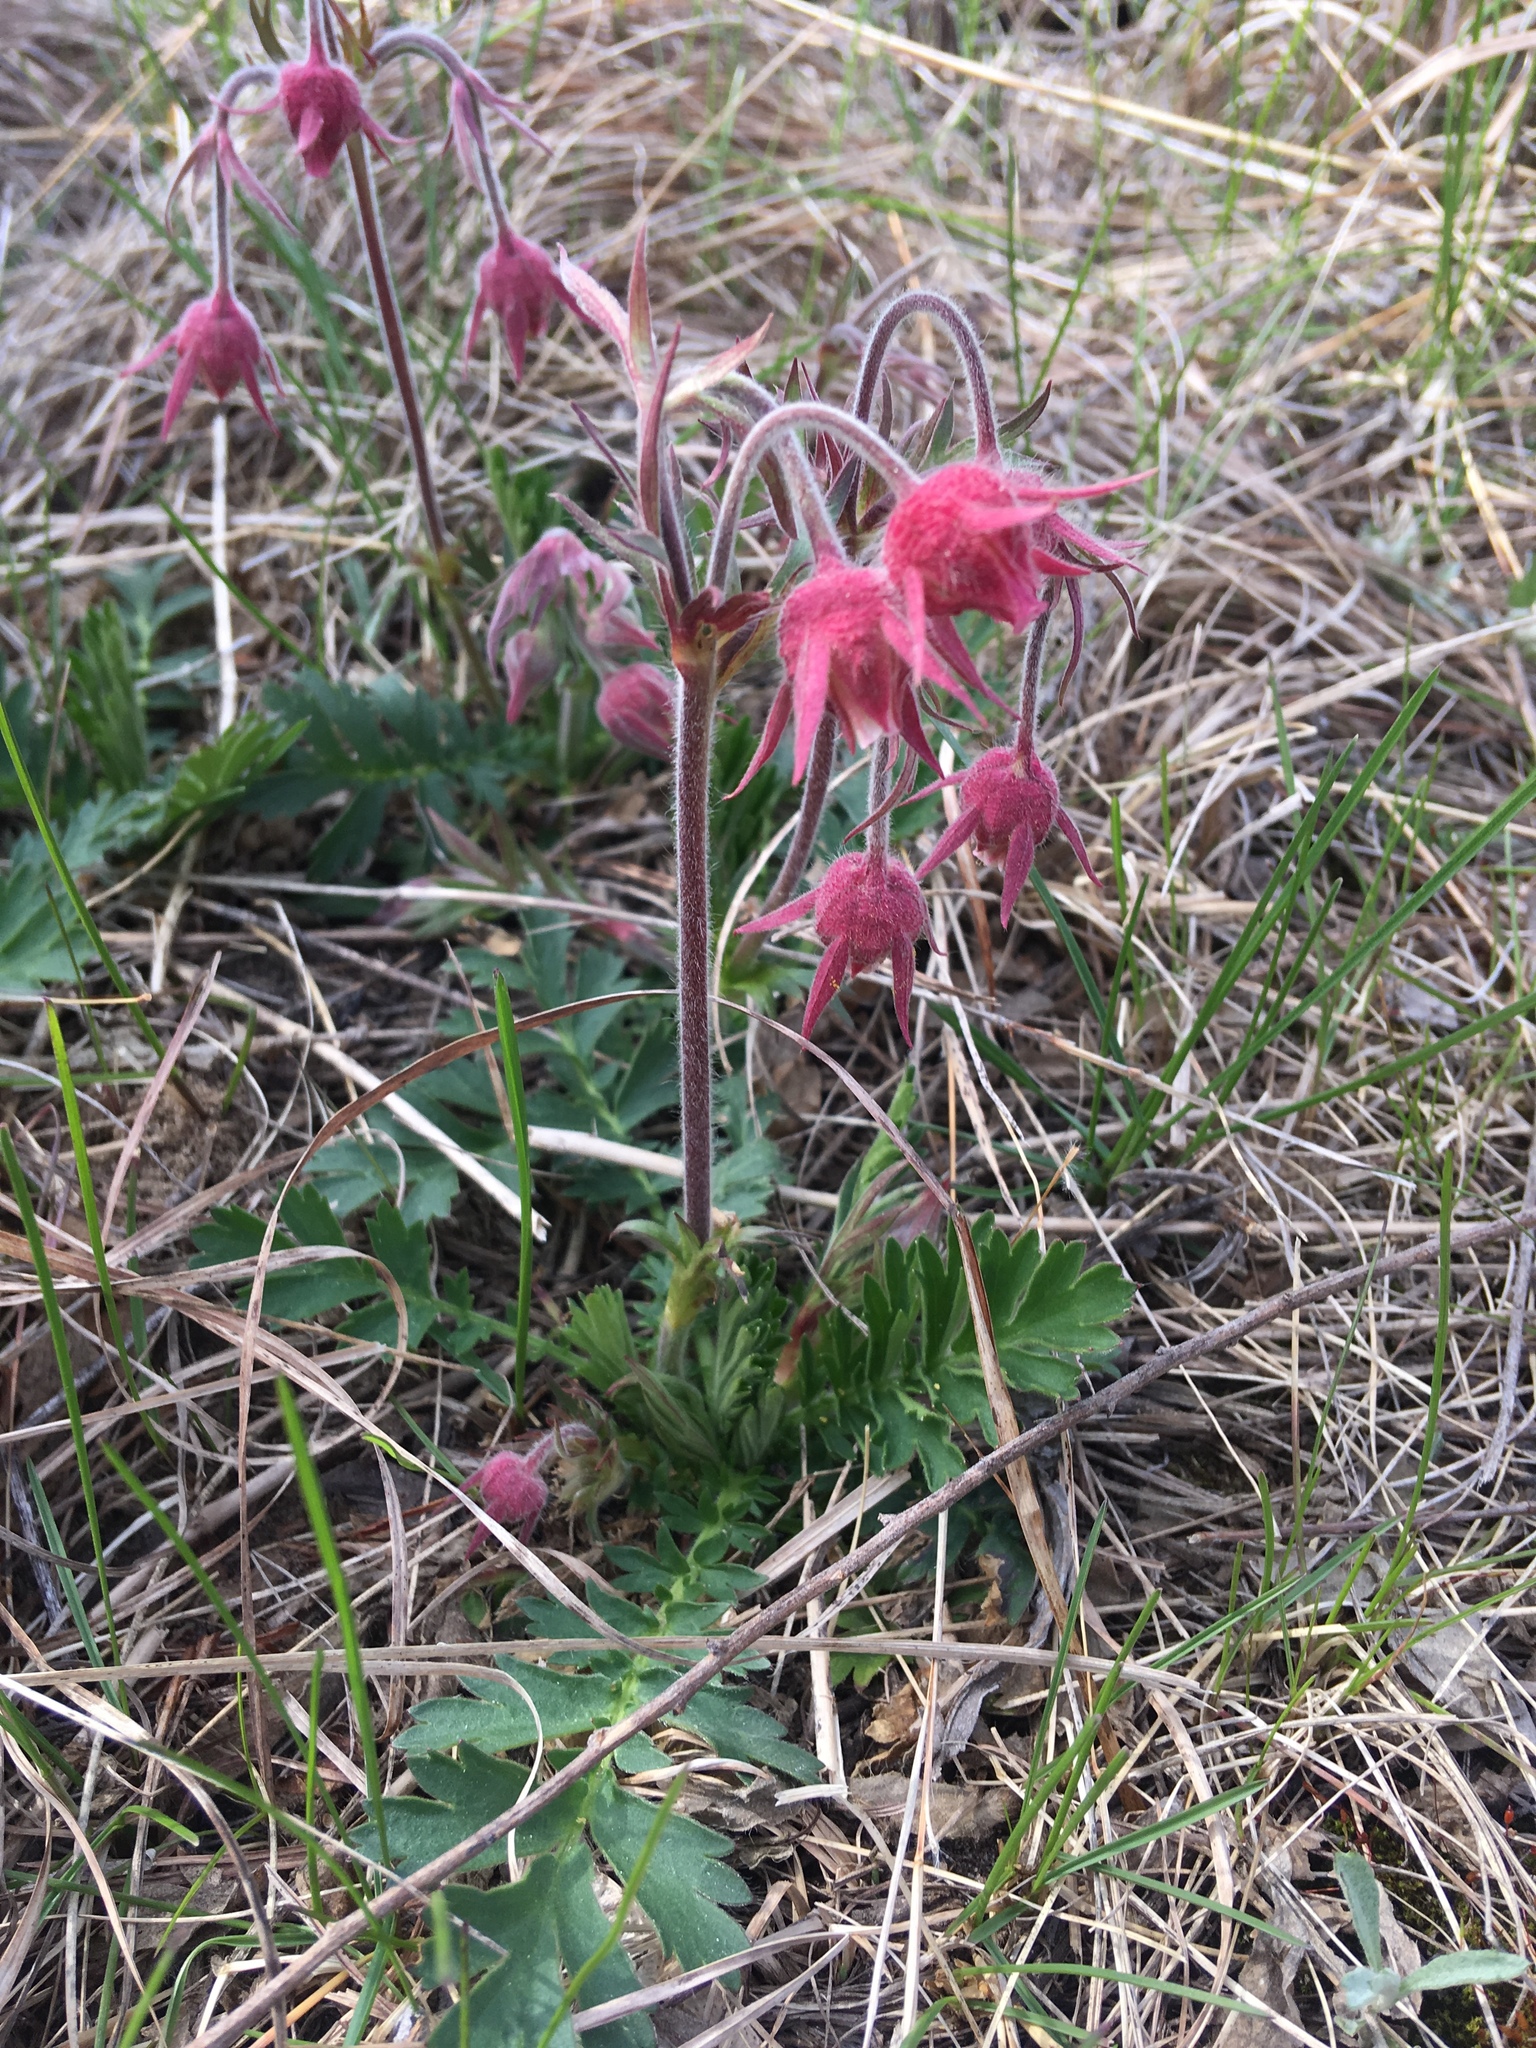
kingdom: Plantae
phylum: Tracheophyta
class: Magnoliopsida
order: Rosales
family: Rosaceae
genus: Geum
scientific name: Geum triflorum
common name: Old man's whiskers
